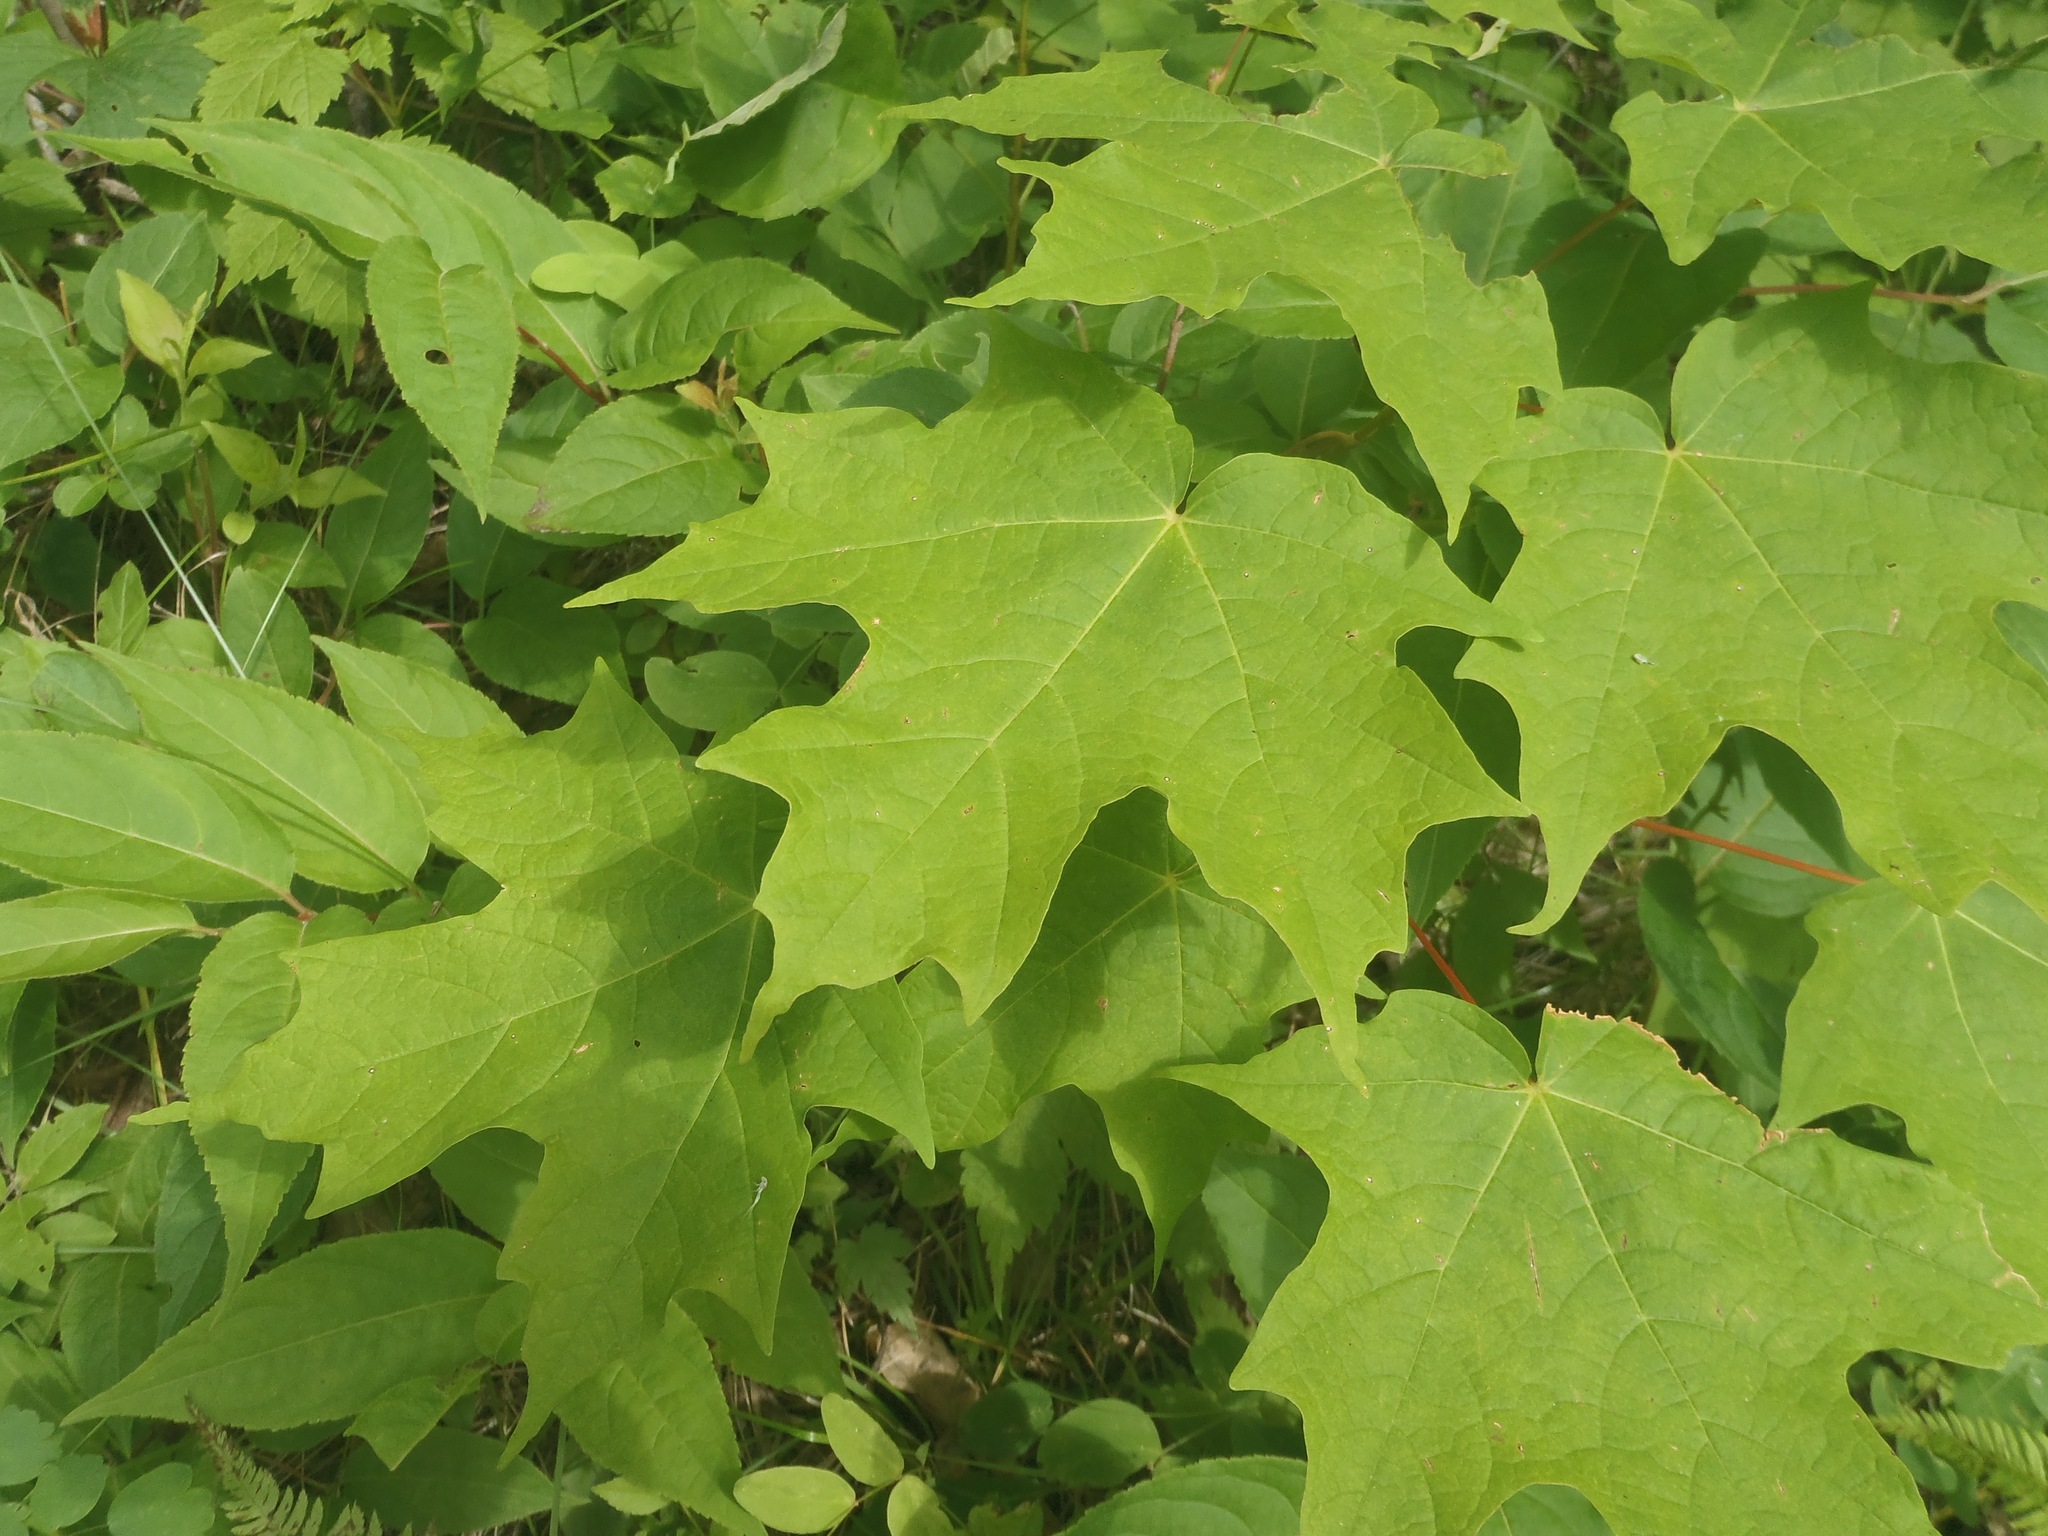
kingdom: Plantae
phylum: Tracheophyta
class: Magnoliopsida
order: Sapindales
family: Sapindaceae
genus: Acer
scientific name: Acer saccharum
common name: Sugar maple
